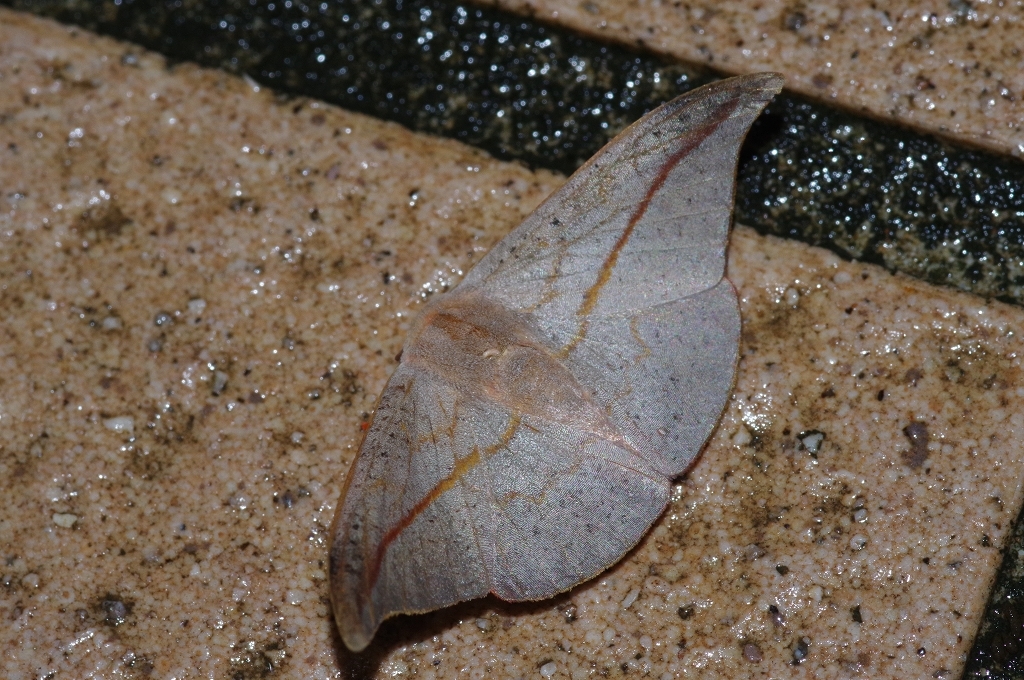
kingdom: Animalia
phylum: Arthropoda
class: Insecta
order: Lepidoptera
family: Drepanidae
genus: Oreta
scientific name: Oreta insignis
